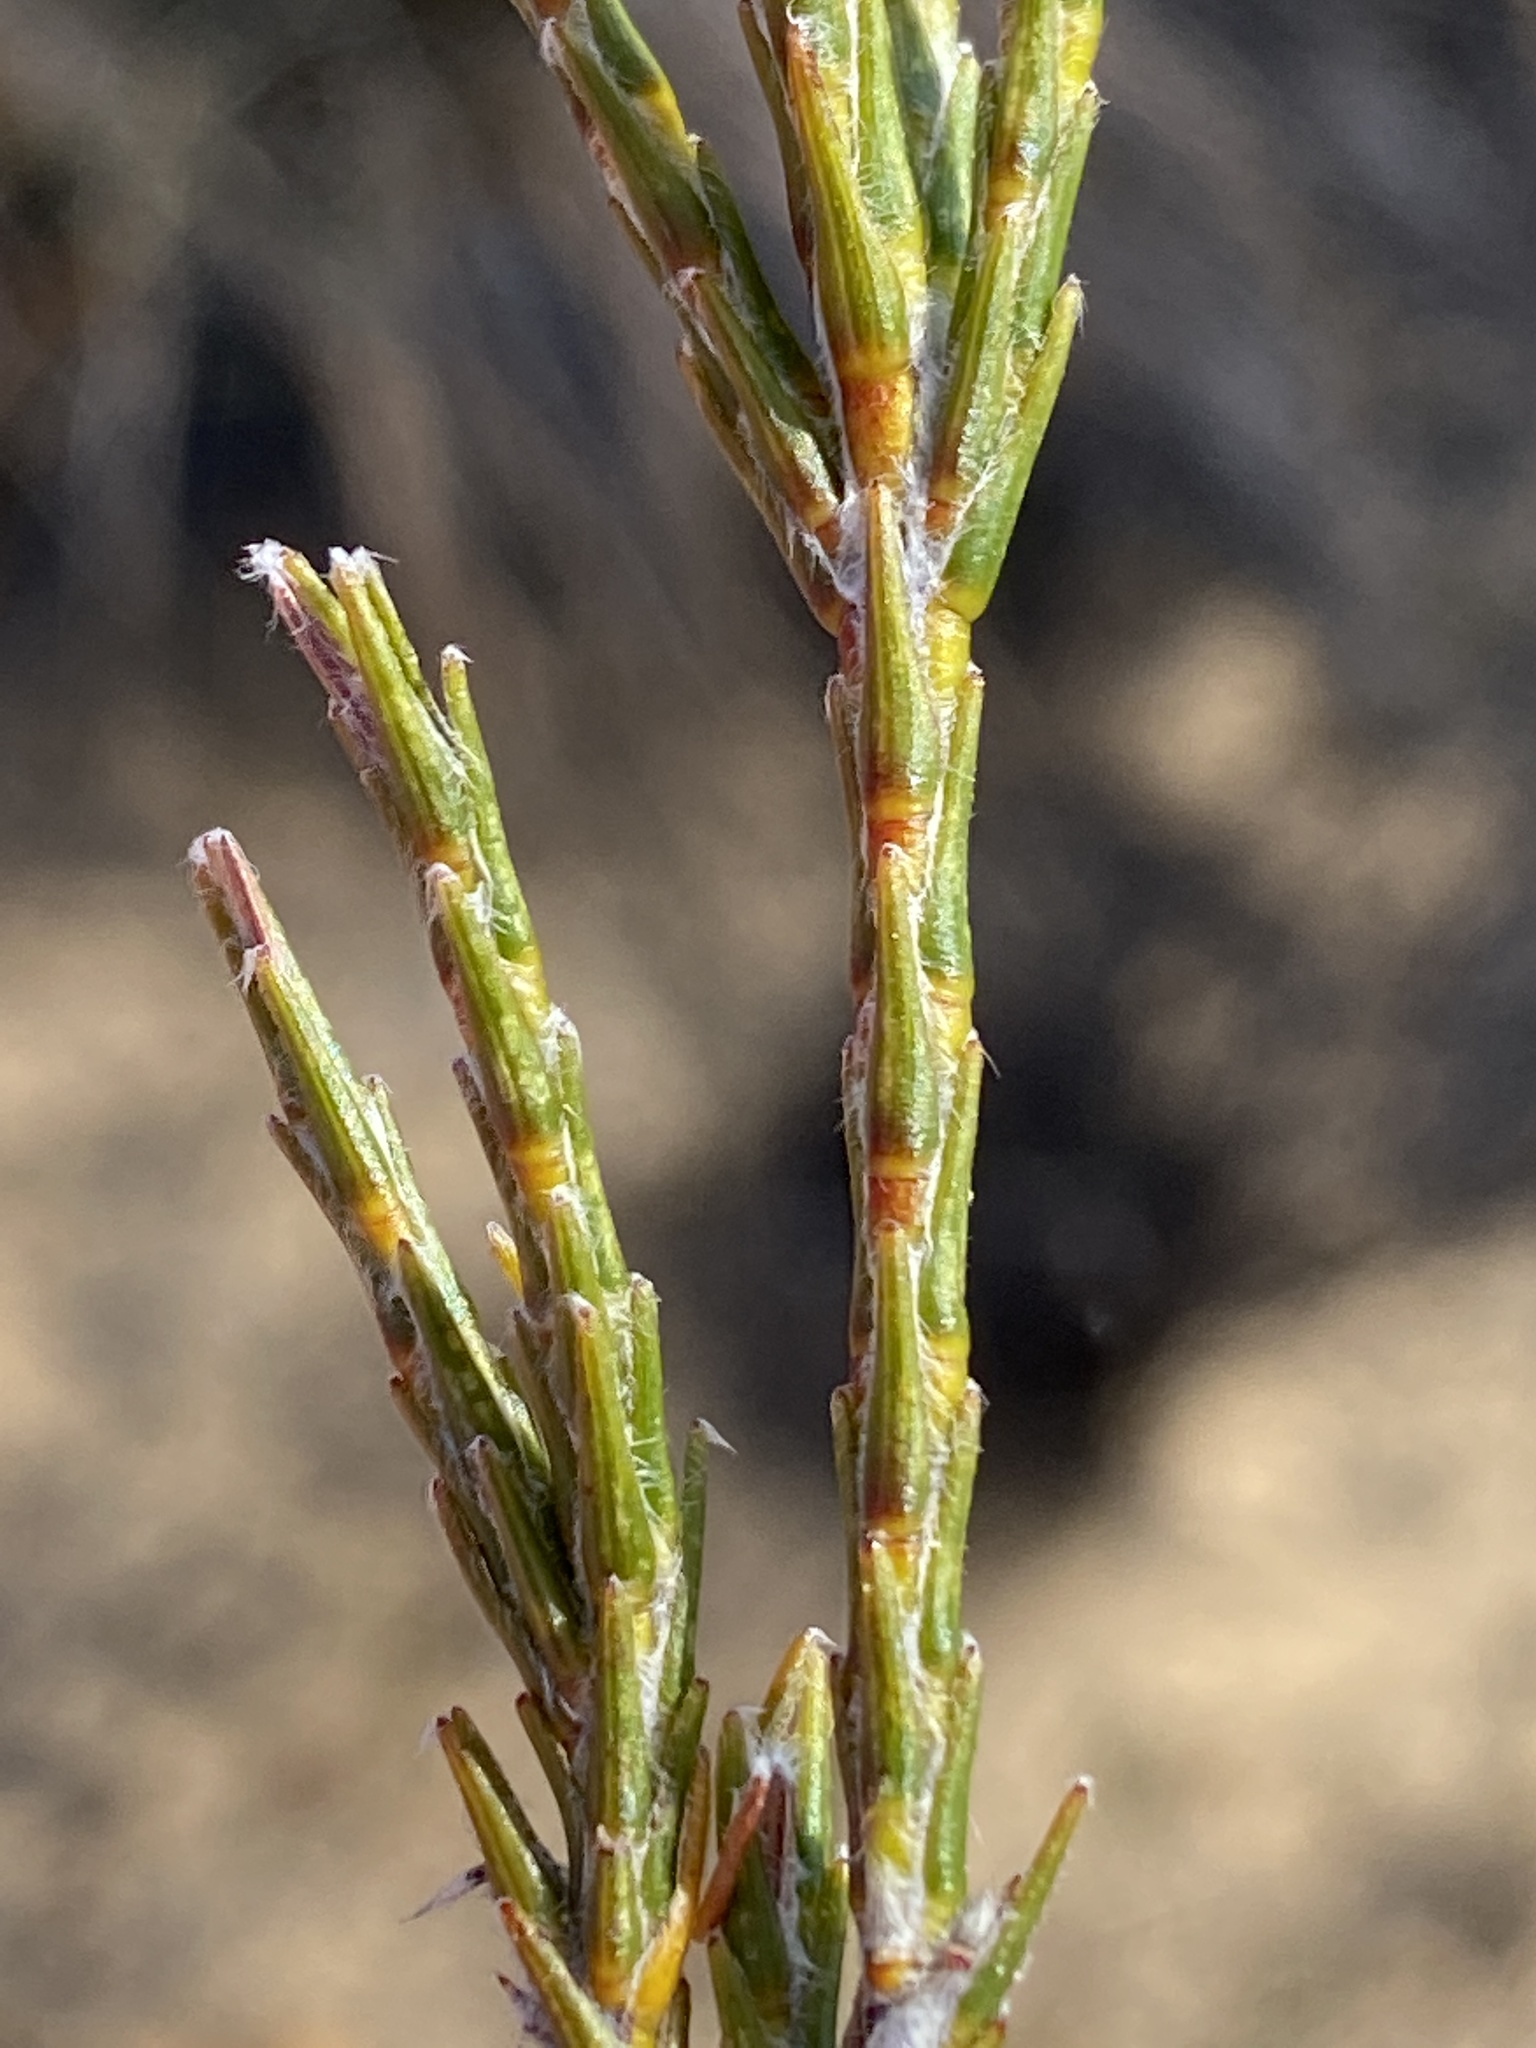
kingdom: Plantae
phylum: Tracheophyta
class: Magnoliopsida
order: Malvales
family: Thymelaeaceae
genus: Struthiola
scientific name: Struthiola ciliata
